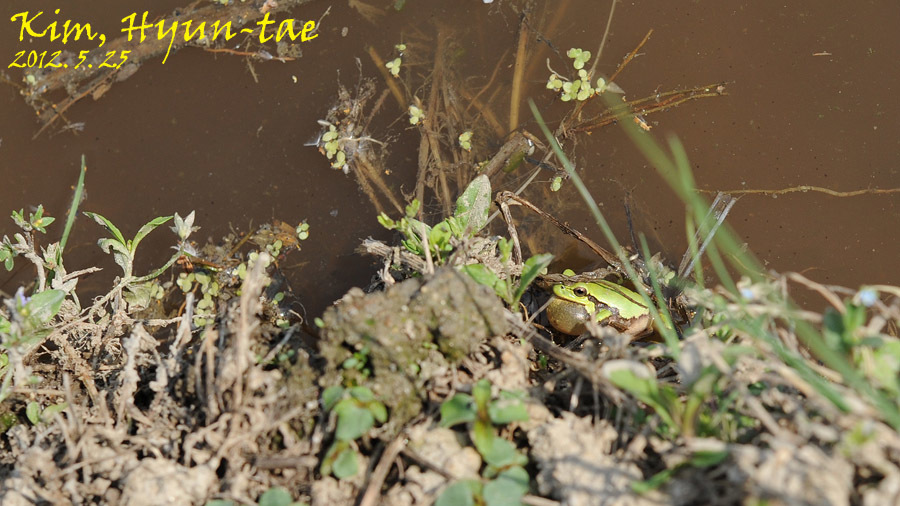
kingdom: Animalia
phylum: Chordata
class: Amphibia
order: Anura
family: Hylidae
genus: Dryophytes
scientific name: Dryophytes immaculatus
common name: North china treefrog
